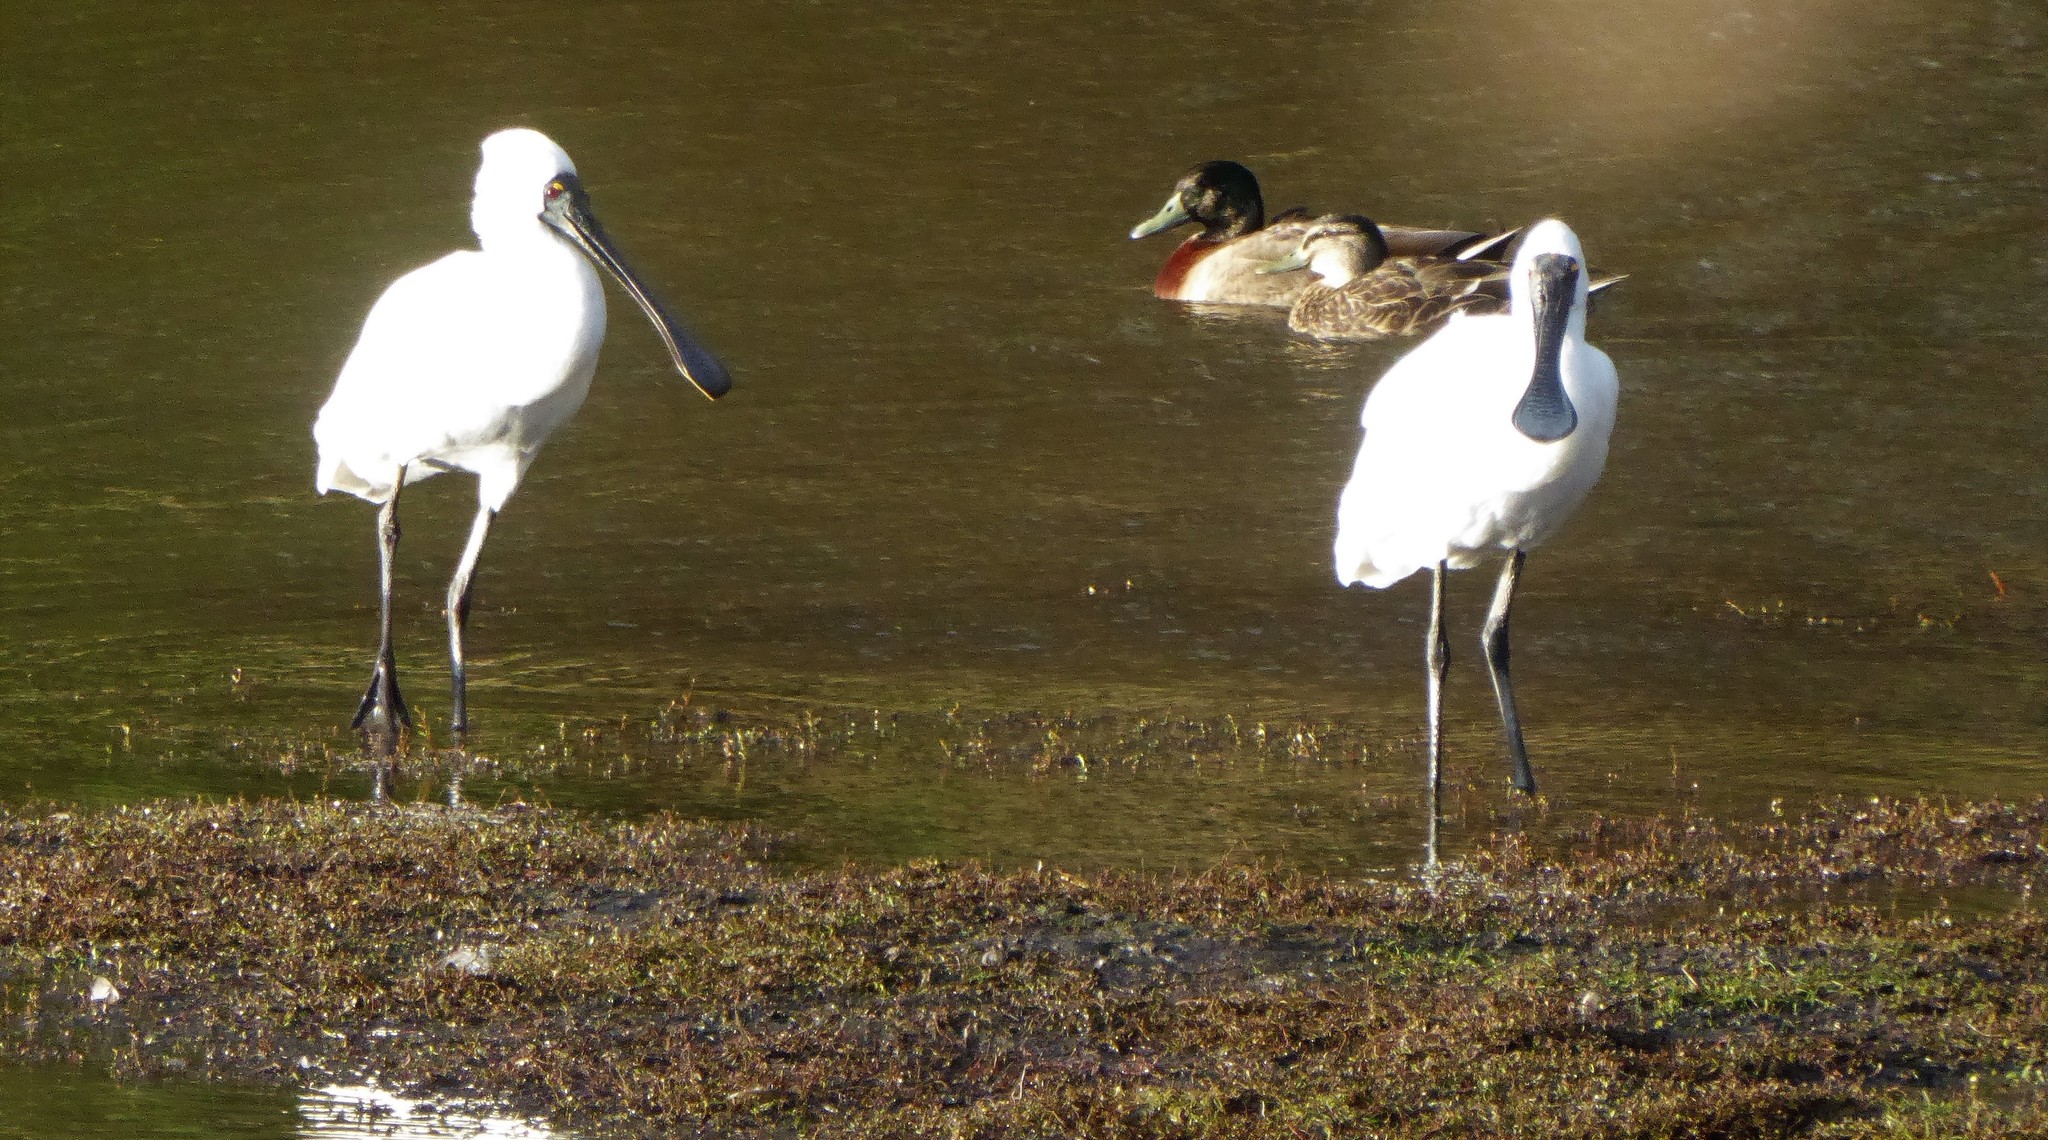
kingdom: Animalia
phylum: Chordata
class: Aves
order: Pelecaniformes
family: Threskiornithidae
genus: Platalea
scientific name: Platalea regia
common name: Royal spoonbill
